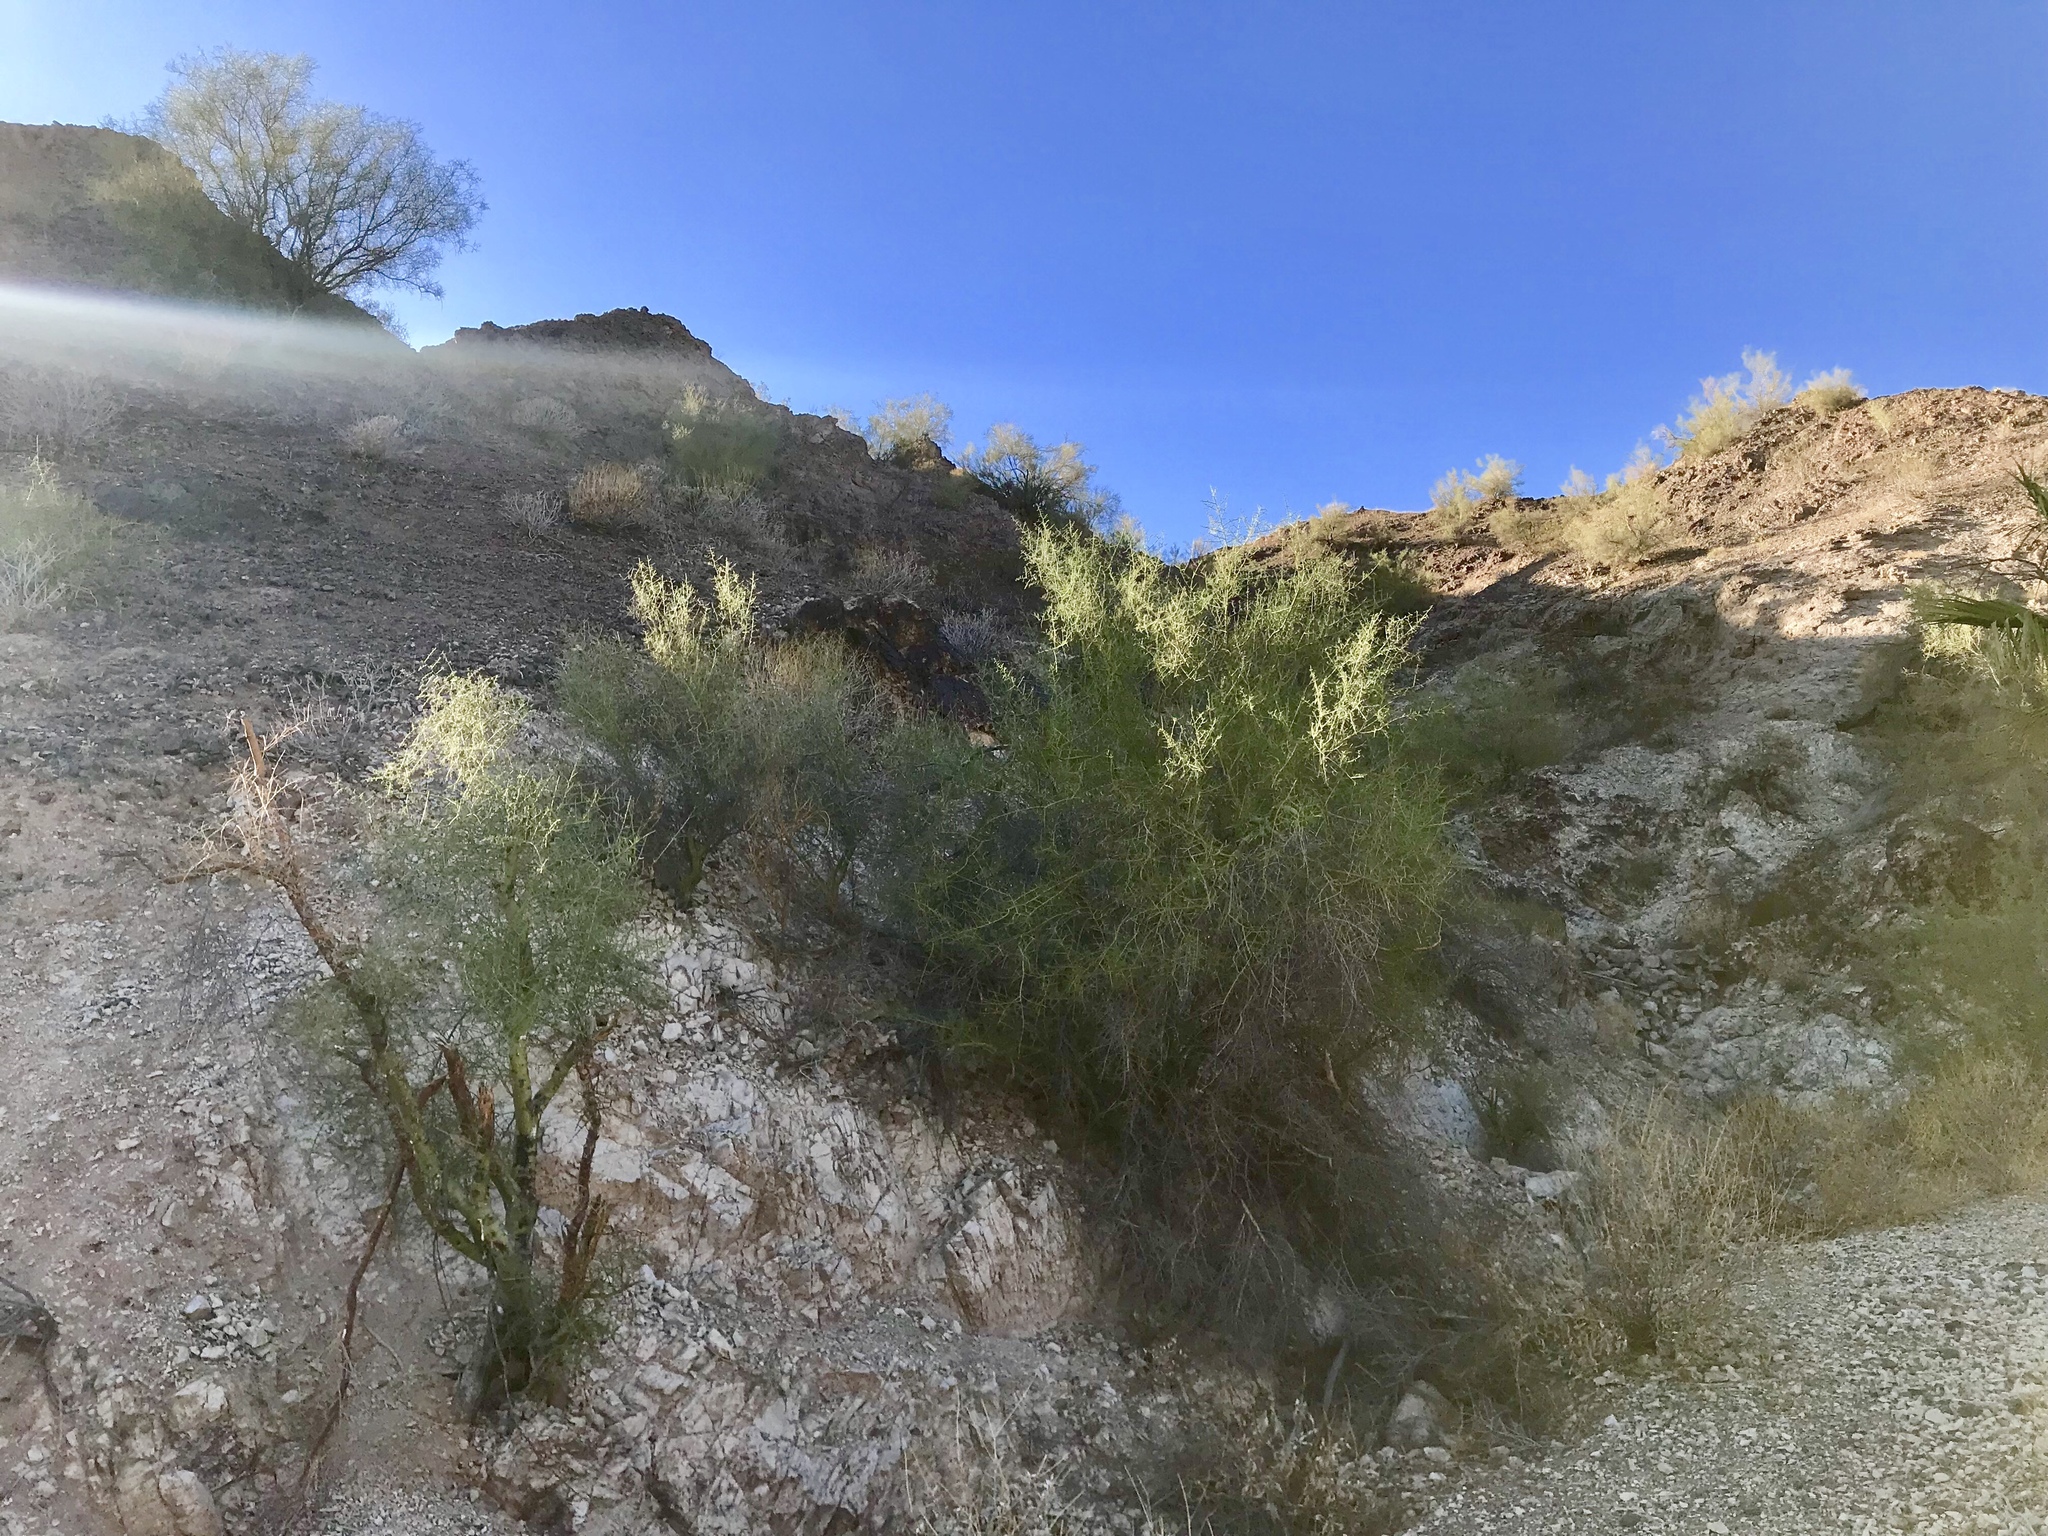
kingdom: Plantae
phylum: Tracheophyta
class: Magnoliopsida
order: Fabales
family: Fabaceae
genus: Parkinsonia
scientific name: Parkinsonia florida
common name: Blue paloverde
